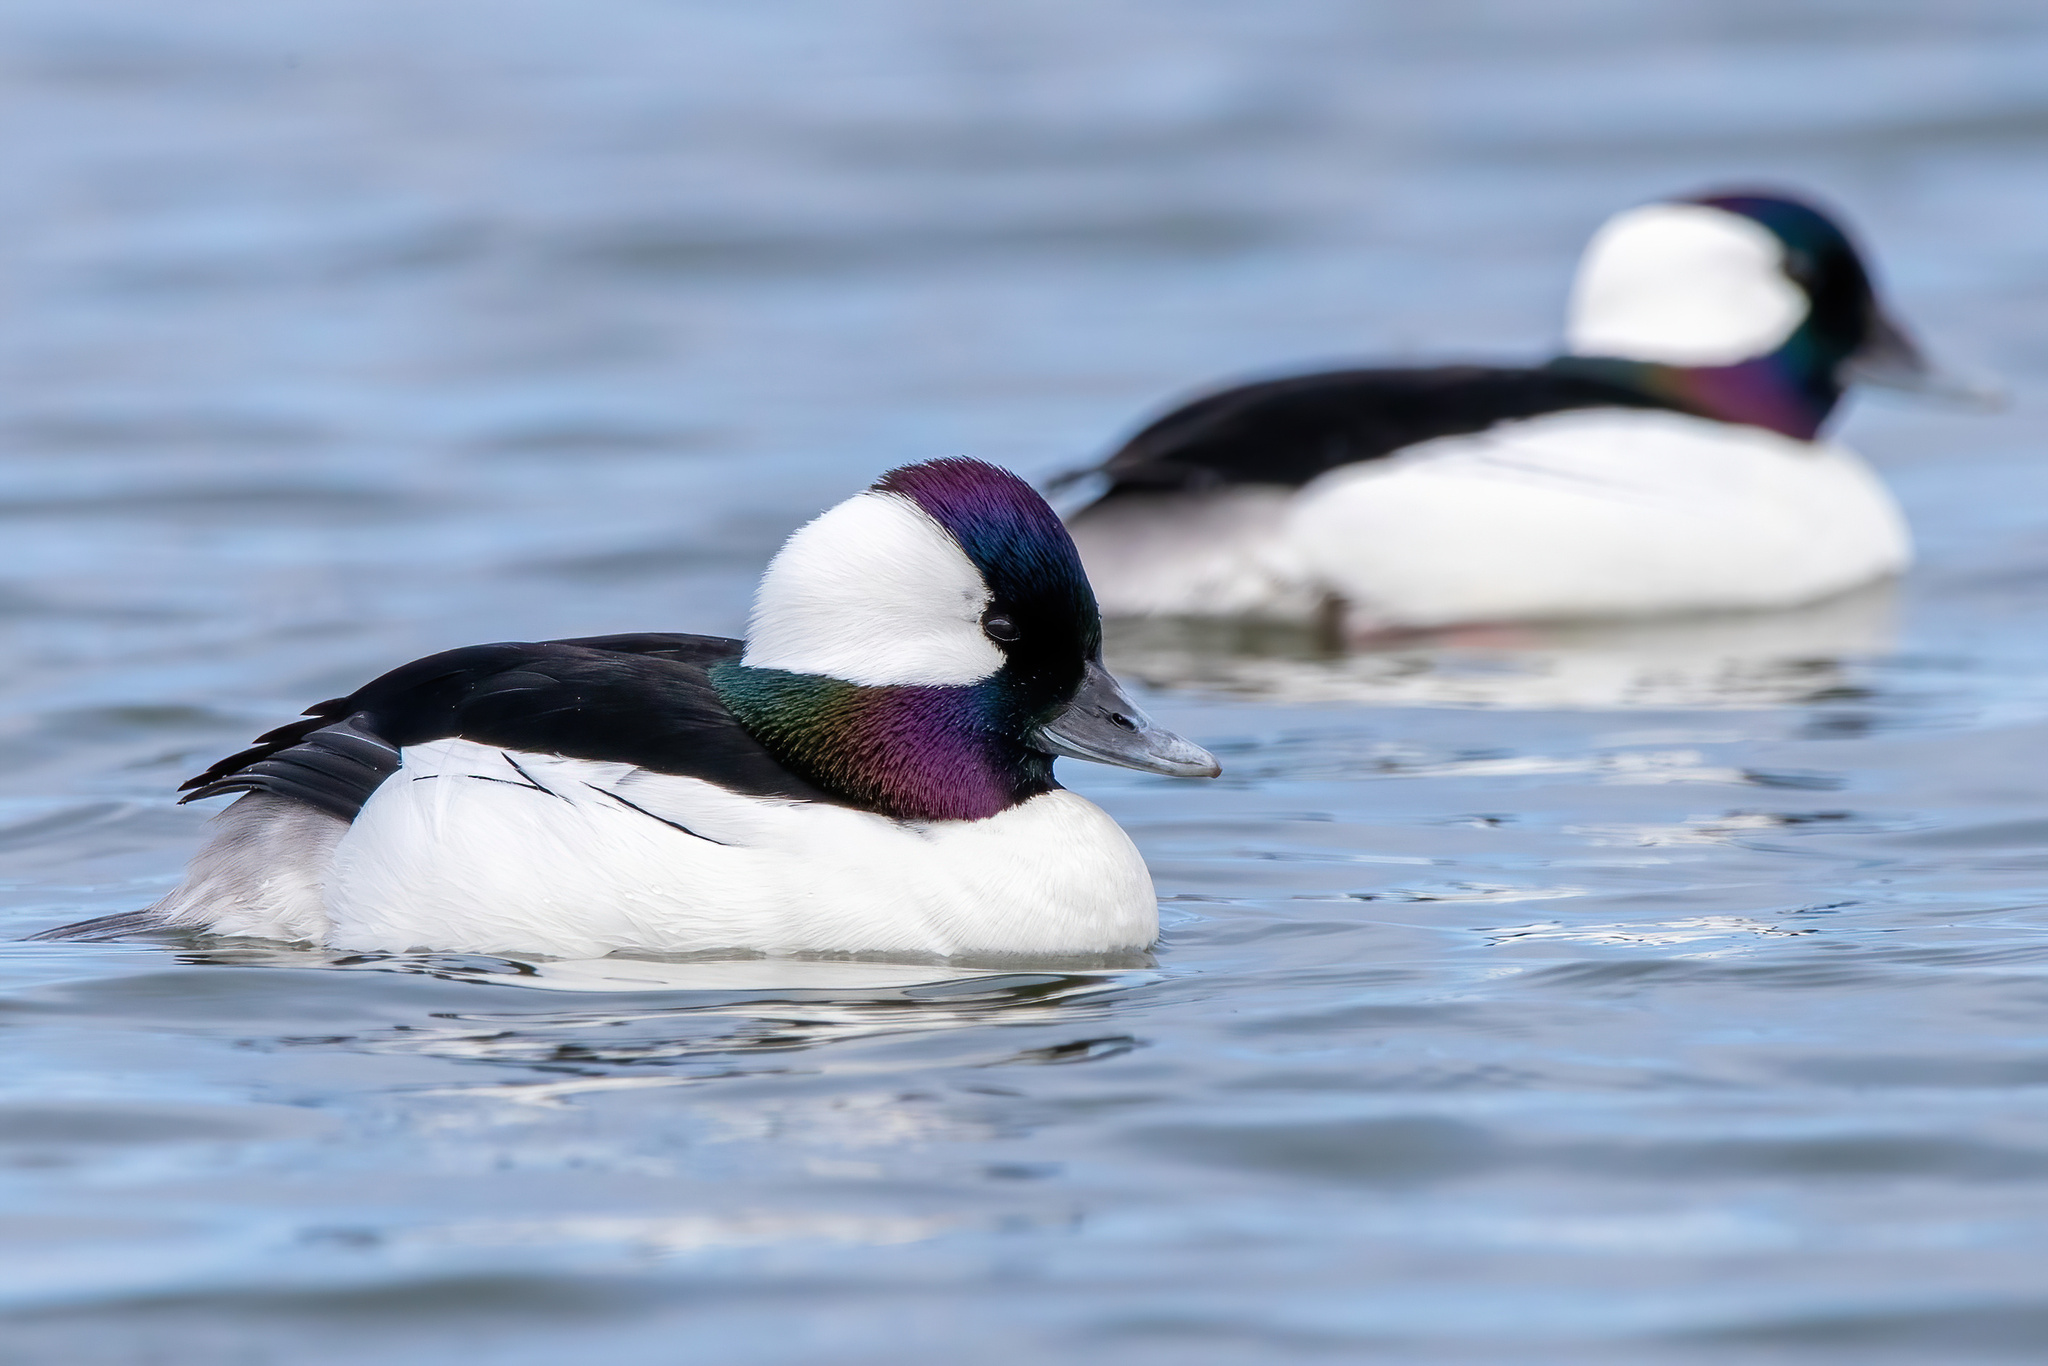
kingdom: Animalia
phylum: Chordata
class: Aves
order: Anseriformes
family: Anatidae
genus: Bucephala
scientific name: Bucephala albeola
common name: Bufflehead
